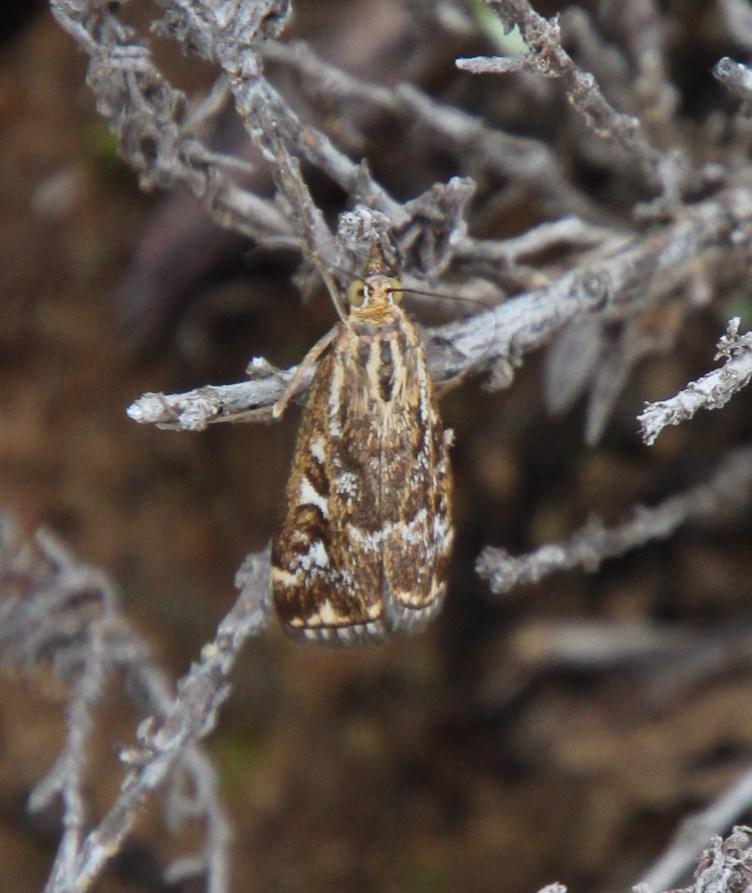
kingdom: Animalia
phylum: Arthropoda
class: Insecta
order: Lepidoptera
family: Crambidae
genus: Loxostege
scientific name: Loxostege frustalis
